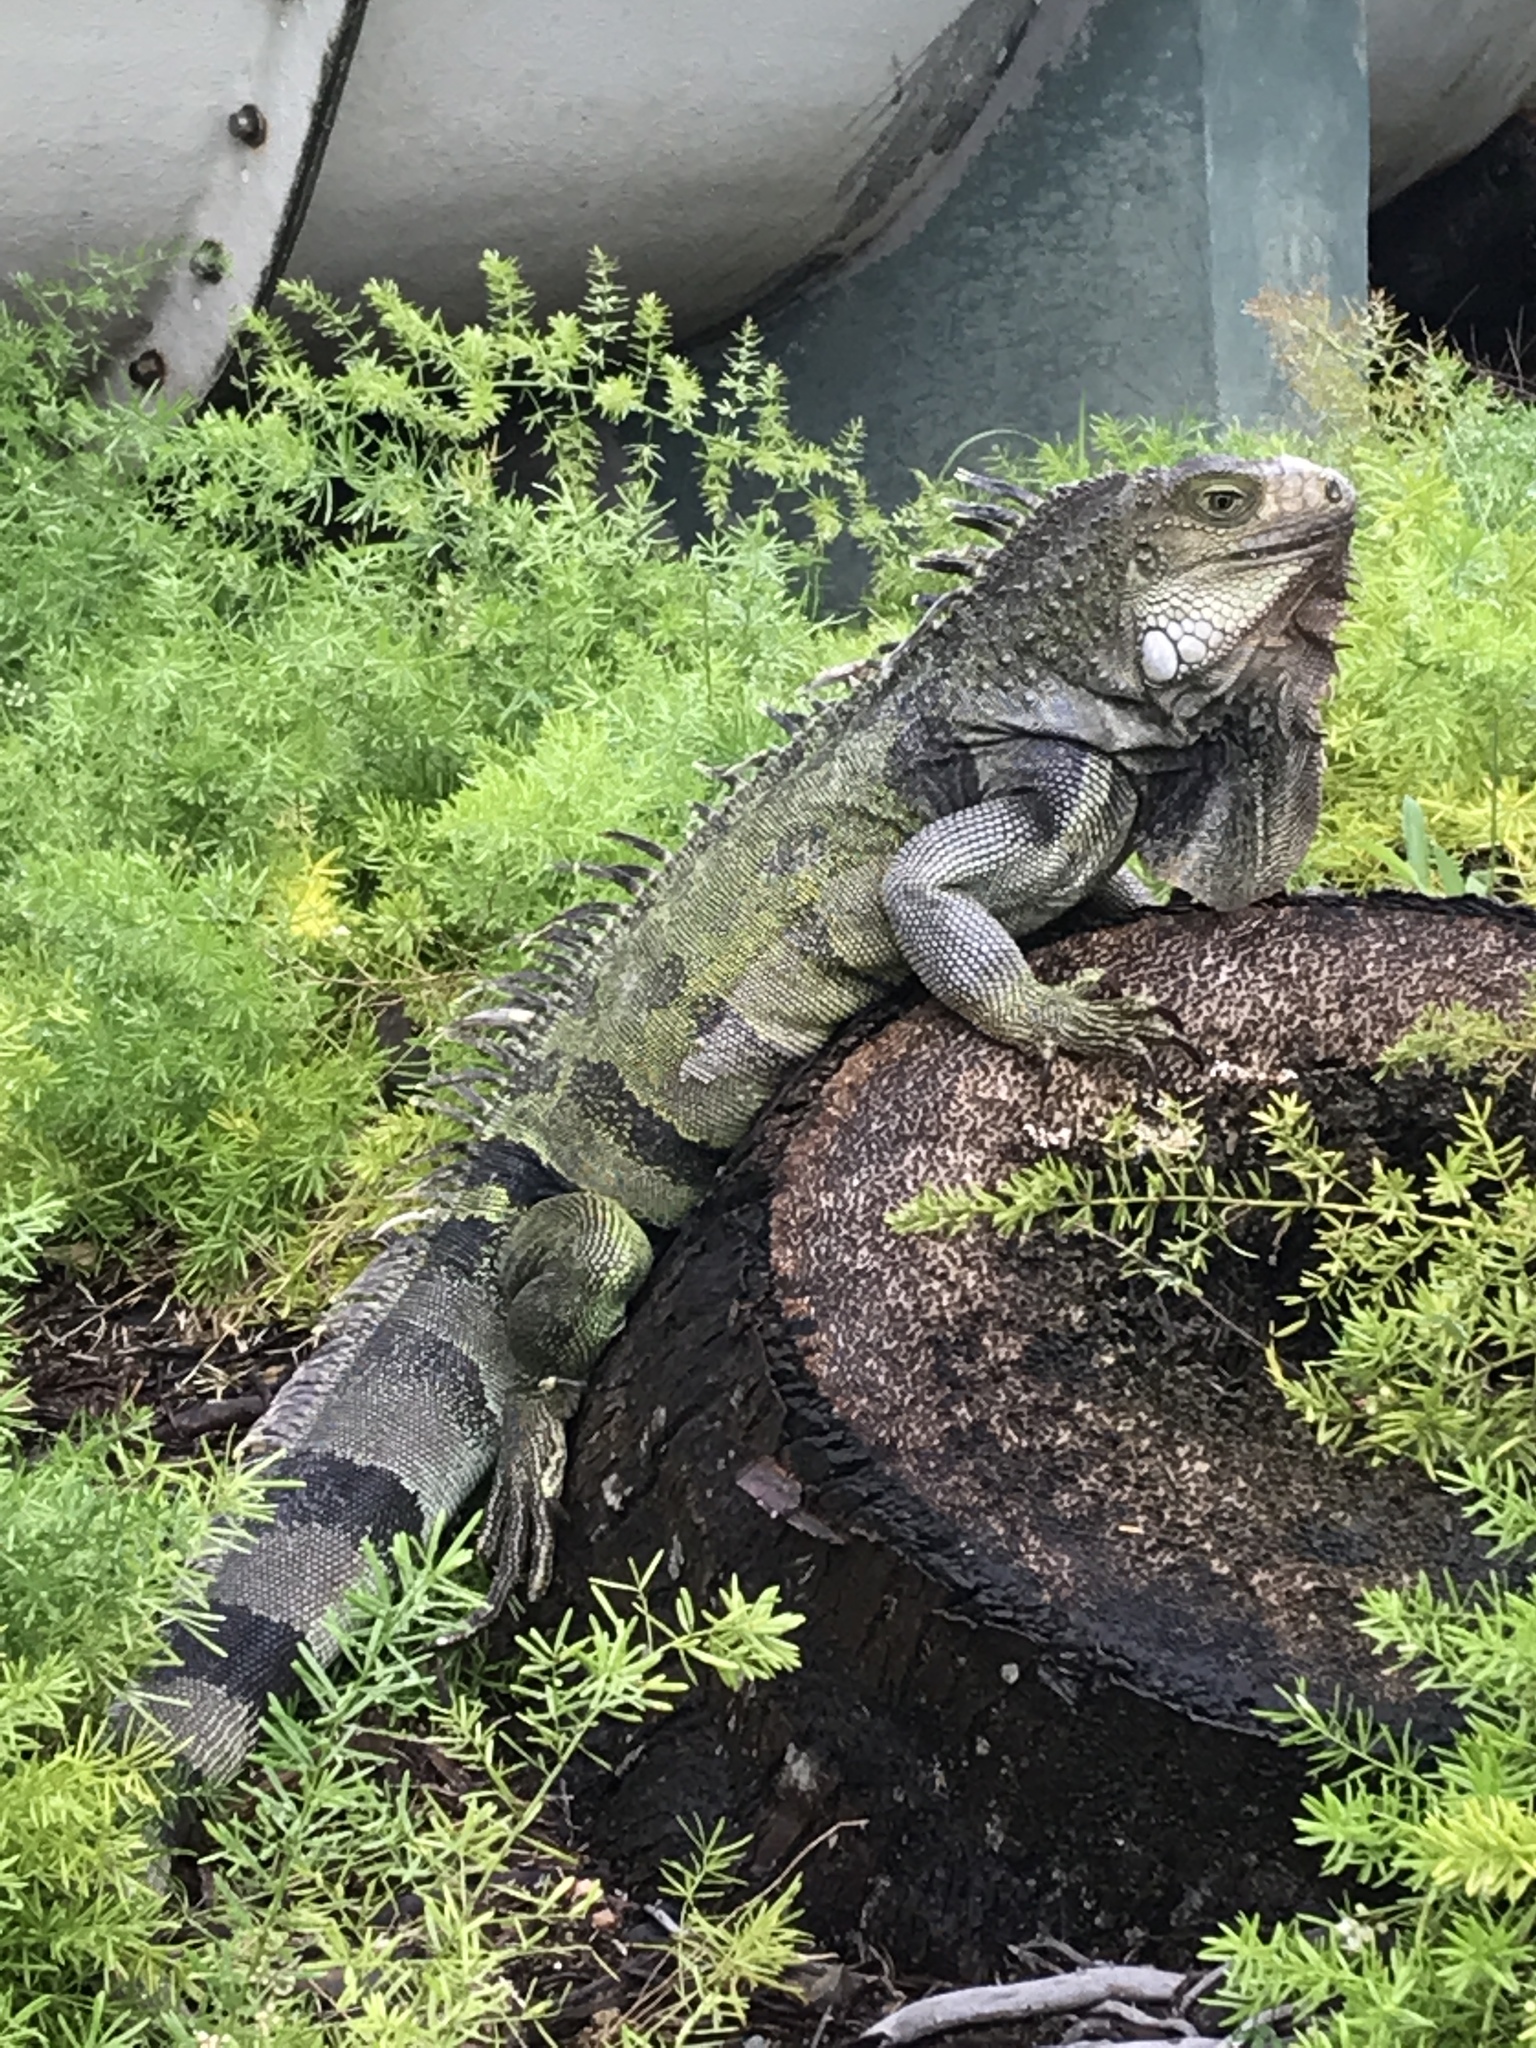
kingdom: Animalia
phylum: Chordata
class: Squamata
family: Iguanidae
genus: Iguana
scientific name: Iguana iguana
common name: Green iguana
